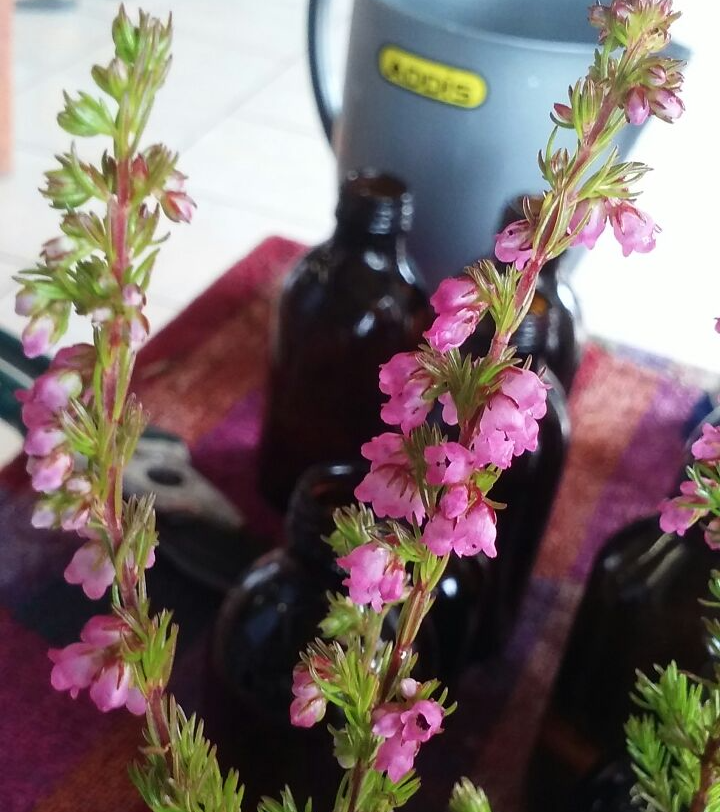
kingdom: Plantae
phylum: Tracheophyta
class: Magnoliopsida
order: Ericales
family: Ericaceae
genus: Erica
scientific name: Erica autumnalis
